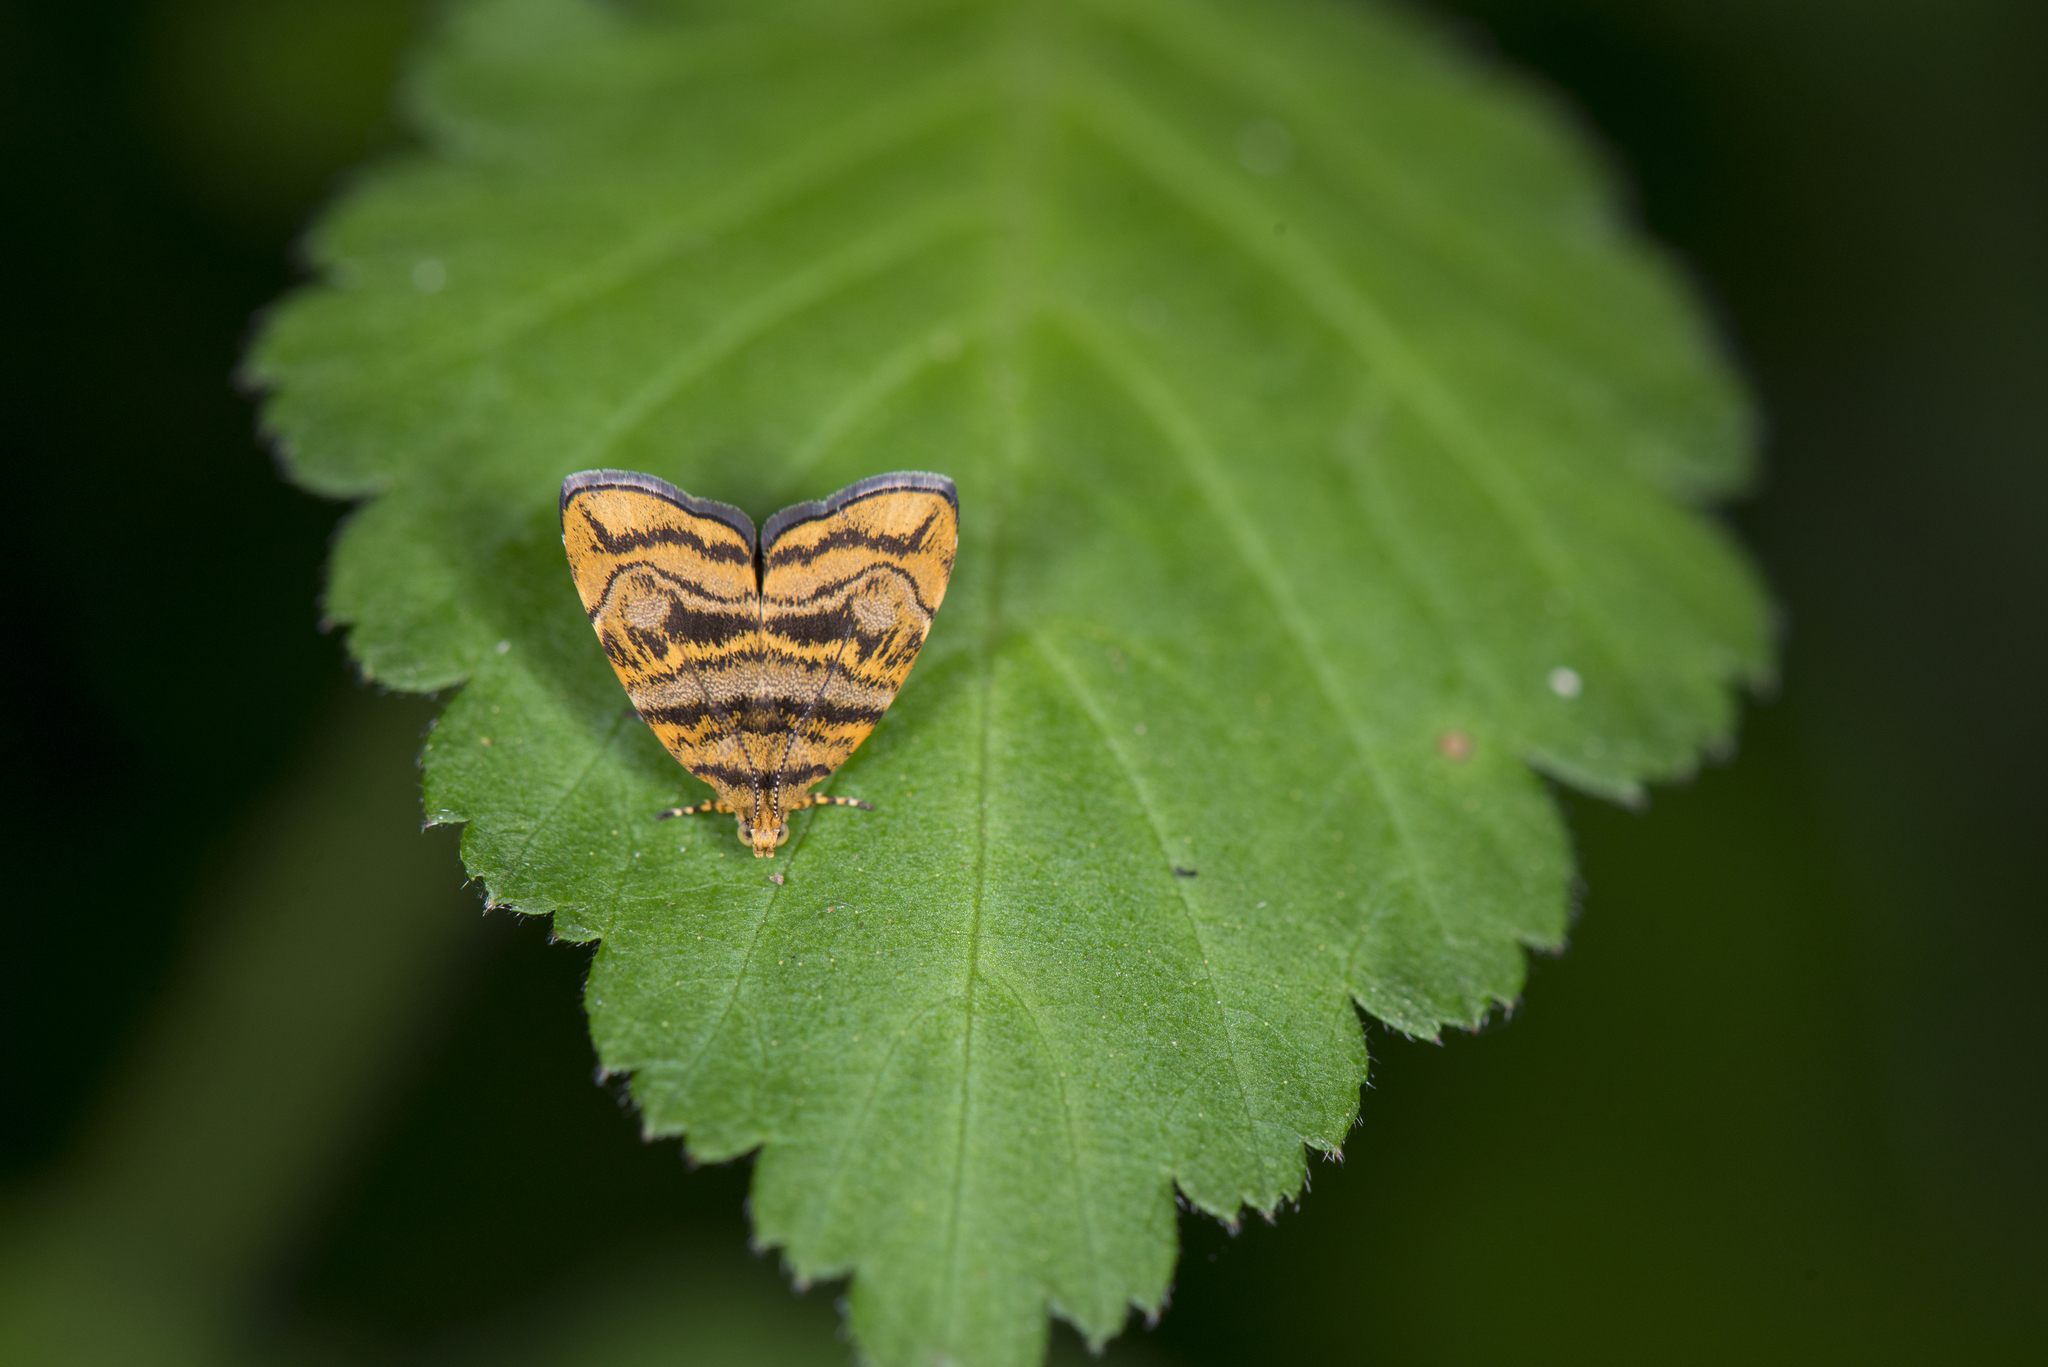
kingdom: Animalia
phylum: Arthropoda
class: Insecta
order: Lepidoptera
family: Choreutidae
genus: Anthophila
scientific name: Anthophila amethystodes
